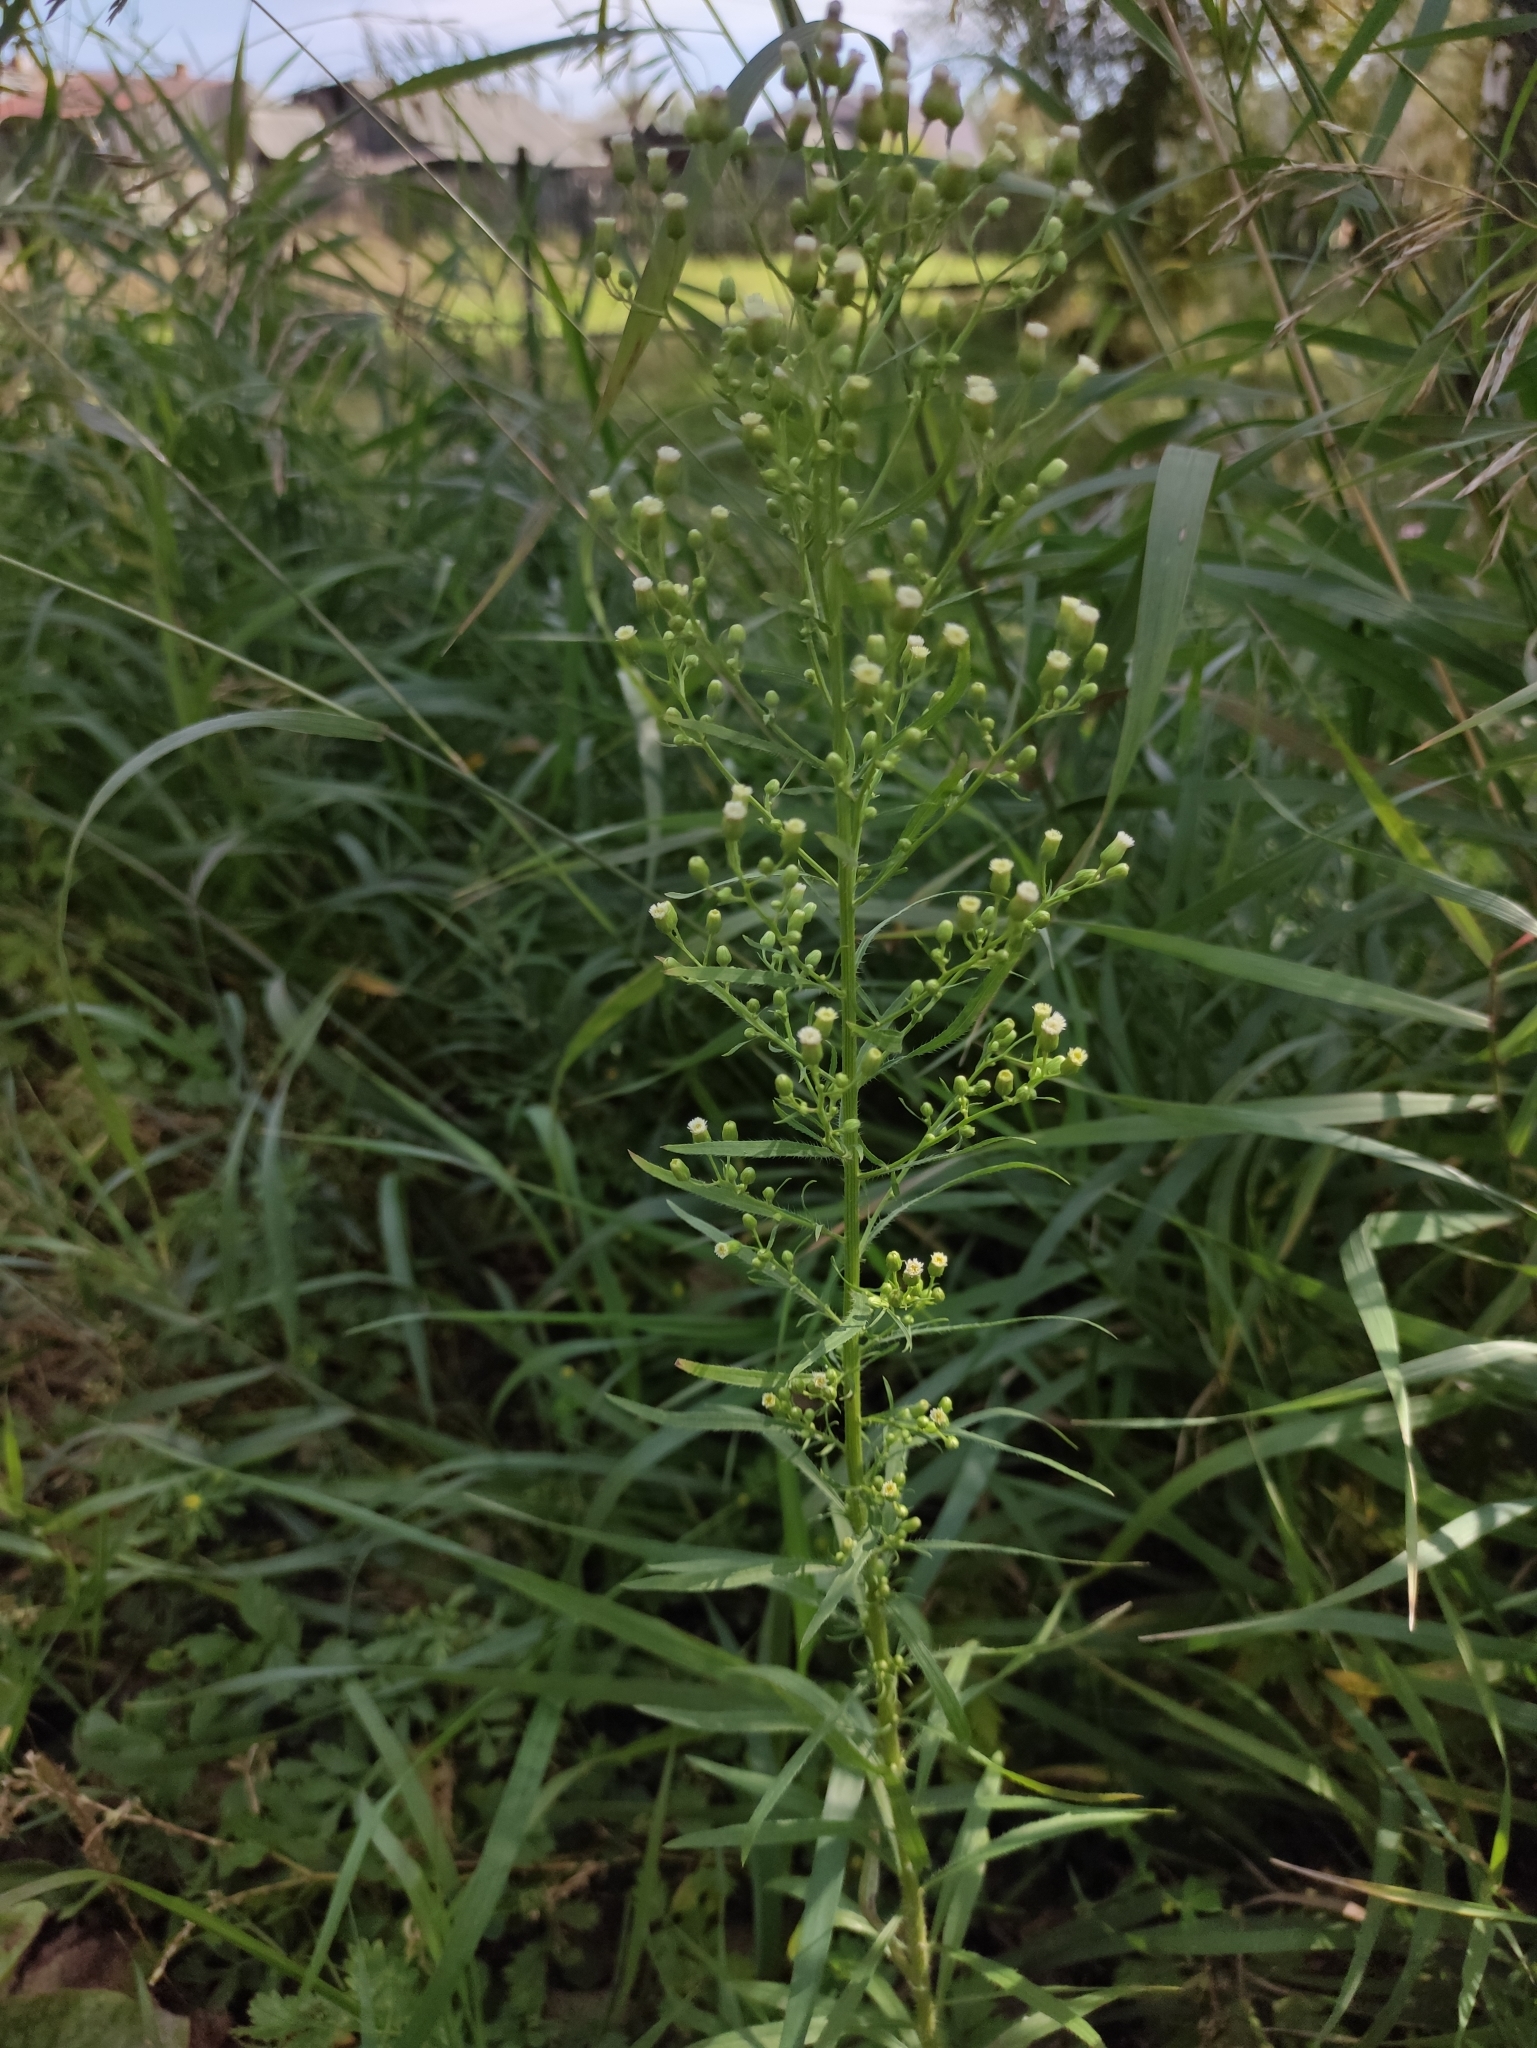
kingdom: Plantae
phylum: Tracheophyta
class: Magnoliopsida
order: Asterales
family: Asteraceae
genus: Erigeron
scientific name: Erigeron canadensis
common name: Canadian fleabane
